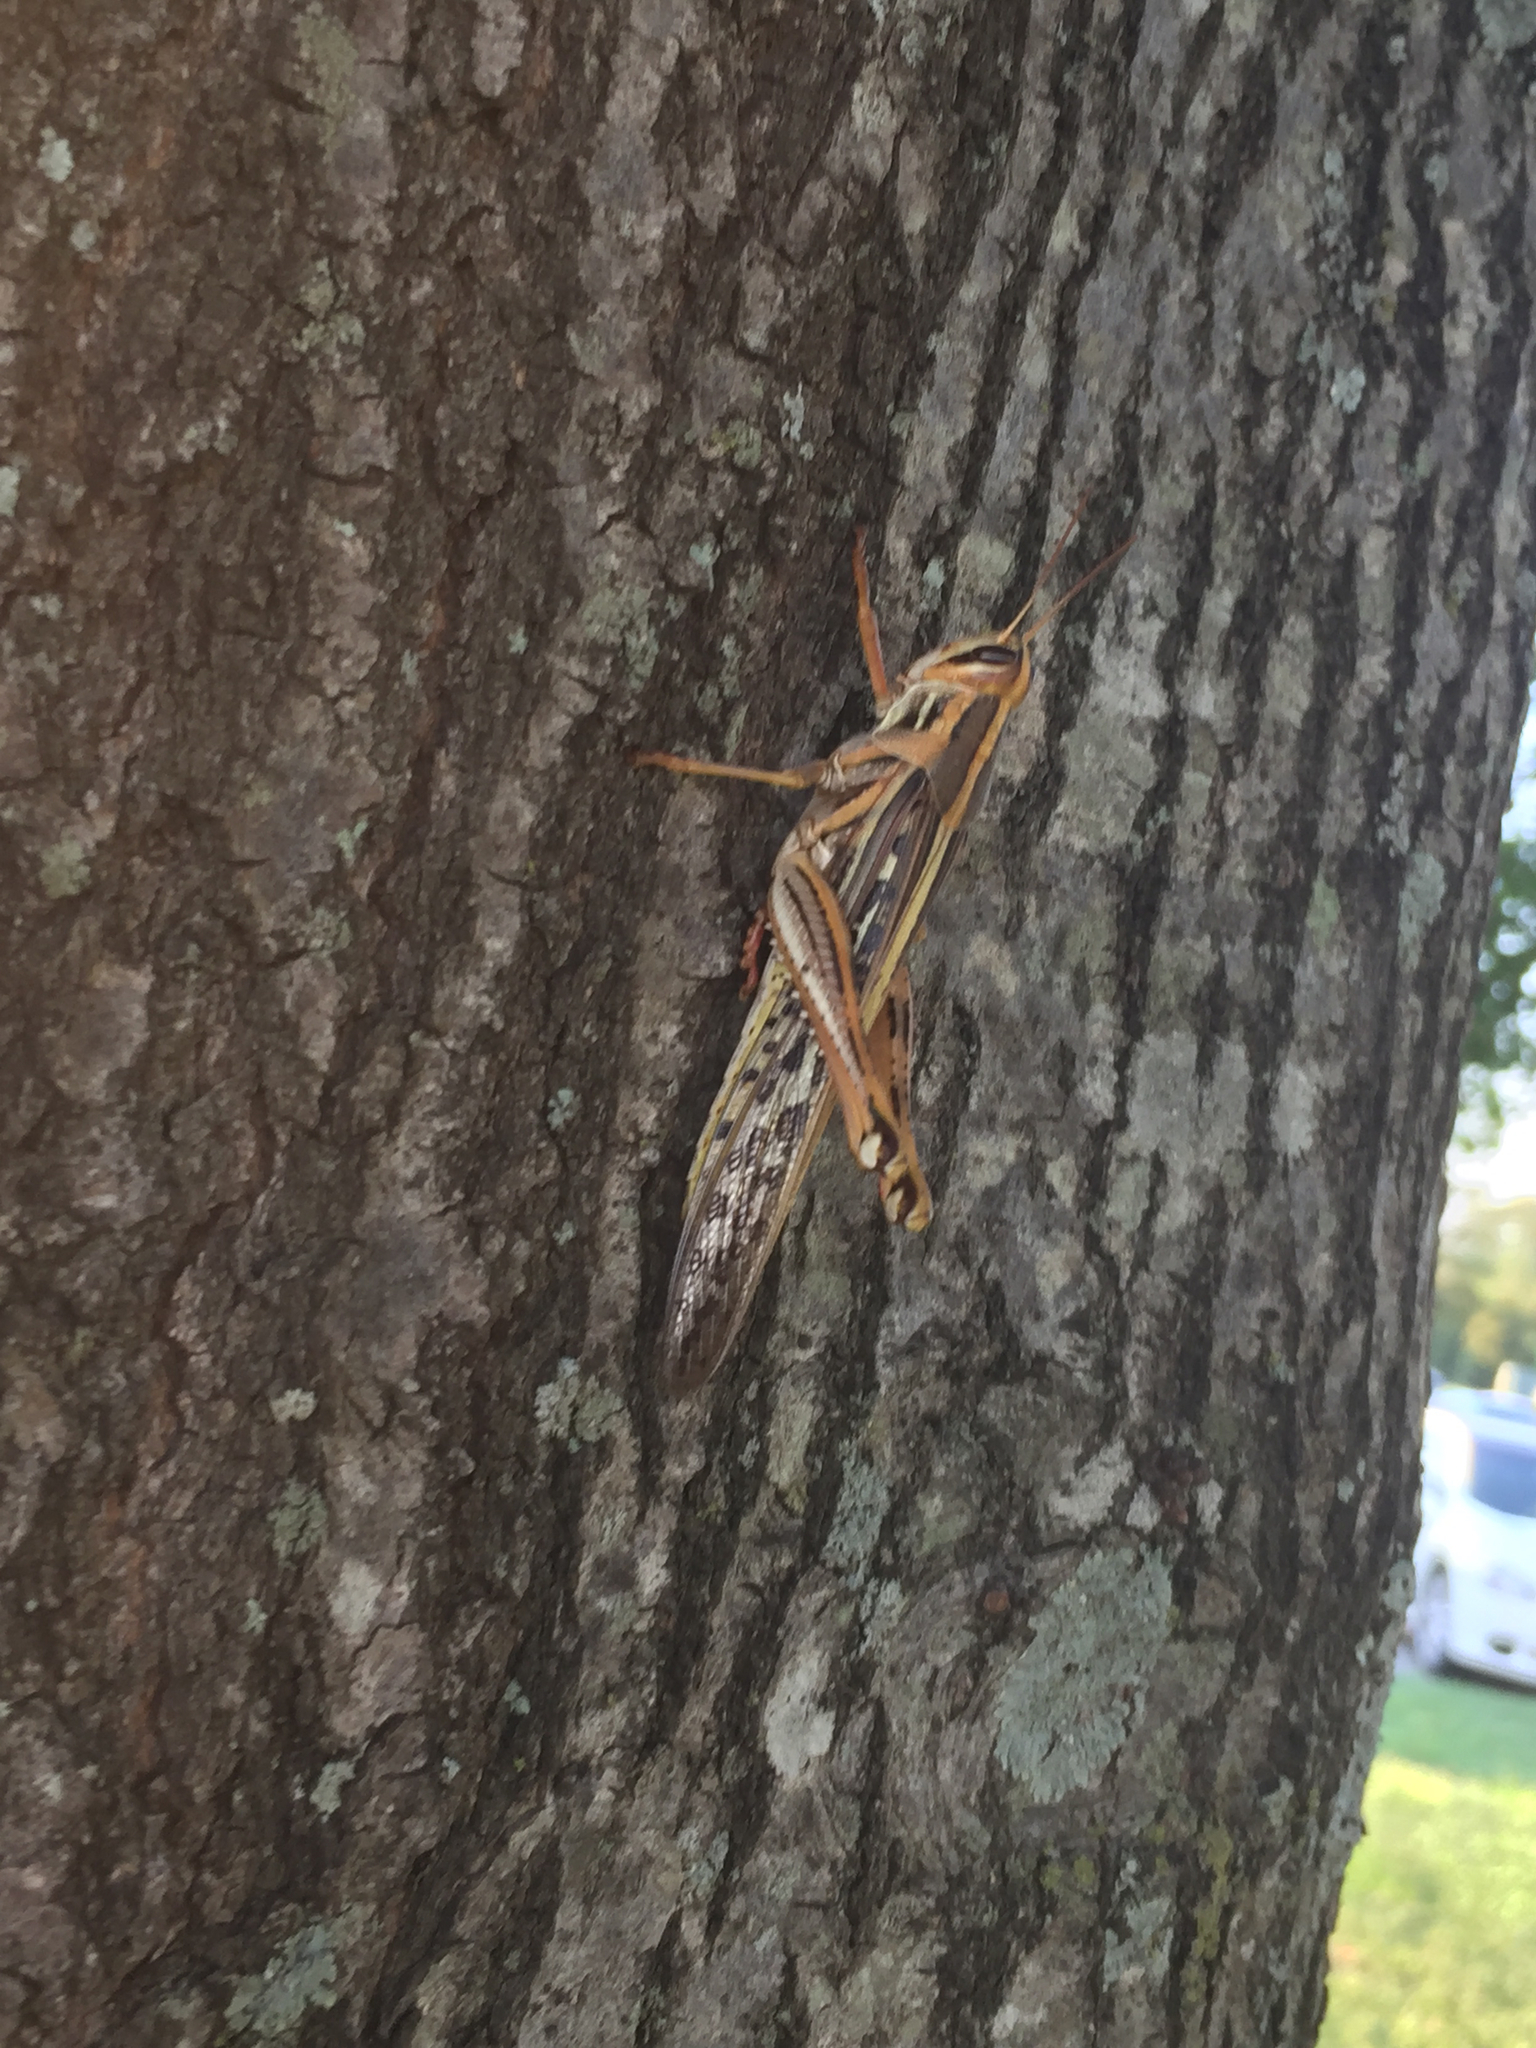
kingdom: Animalia
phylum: Arthropoda
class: Insecta
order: Orthoptera
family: Acrididae
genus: Schistocerca
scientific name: Schistocerca americana
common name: American bird locust
